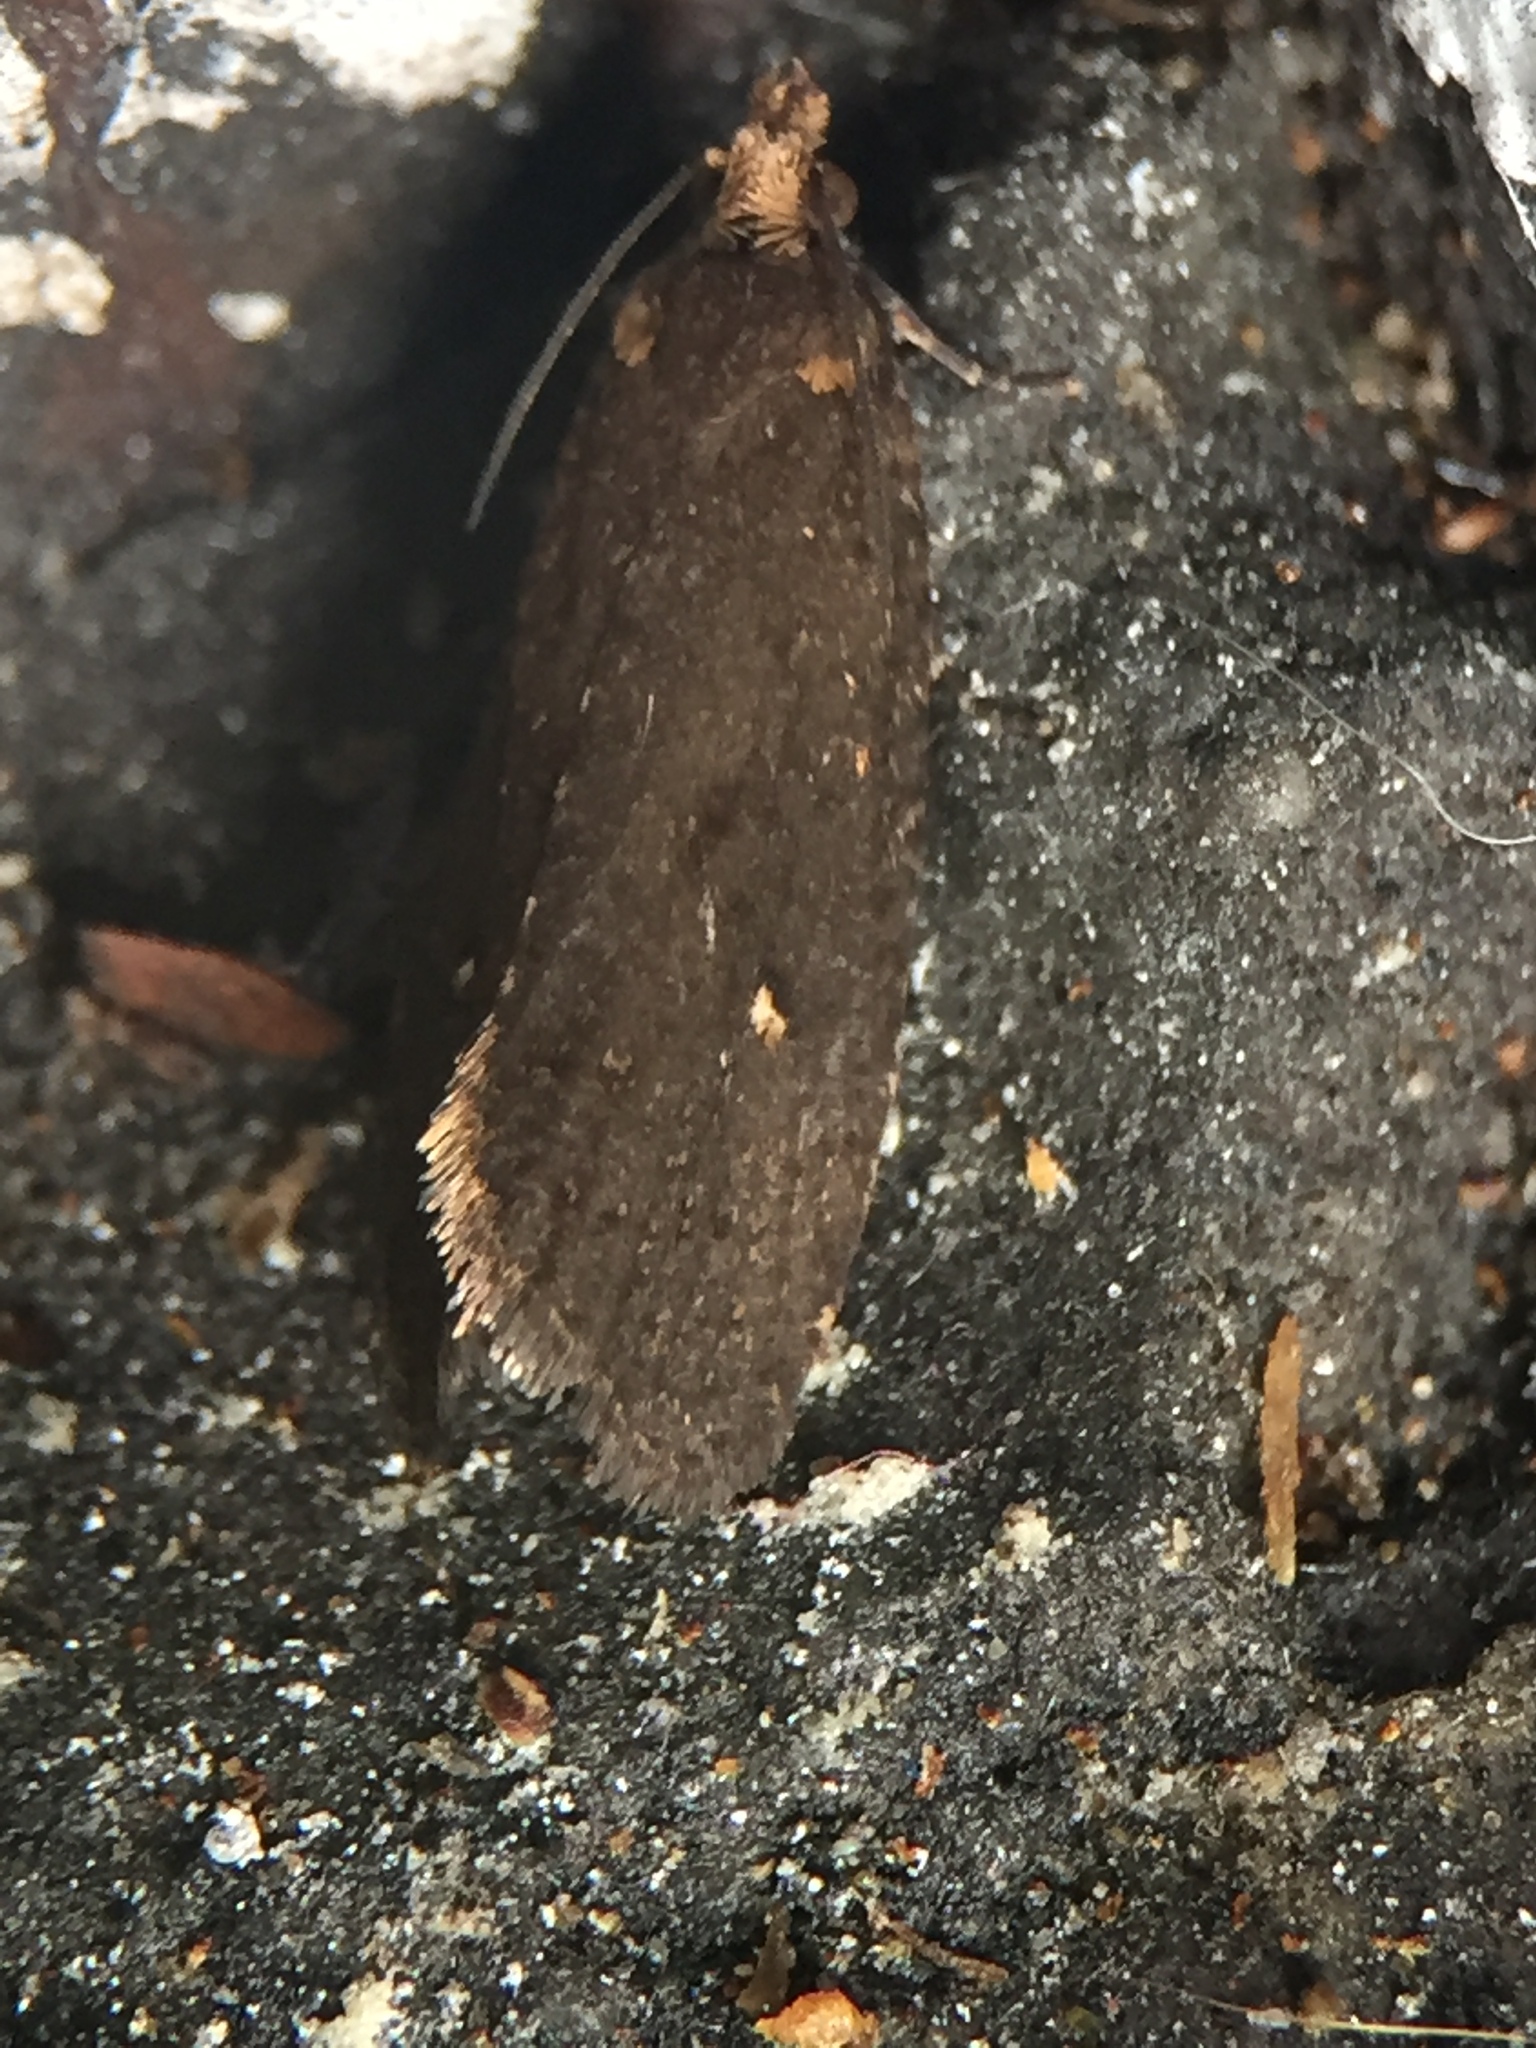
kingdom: Animalia
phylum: Arthropoda
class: Insecta
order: Lepidoptera
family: Tortricidae
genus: Cryptaspasma
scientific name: Cryptaspasma querula
